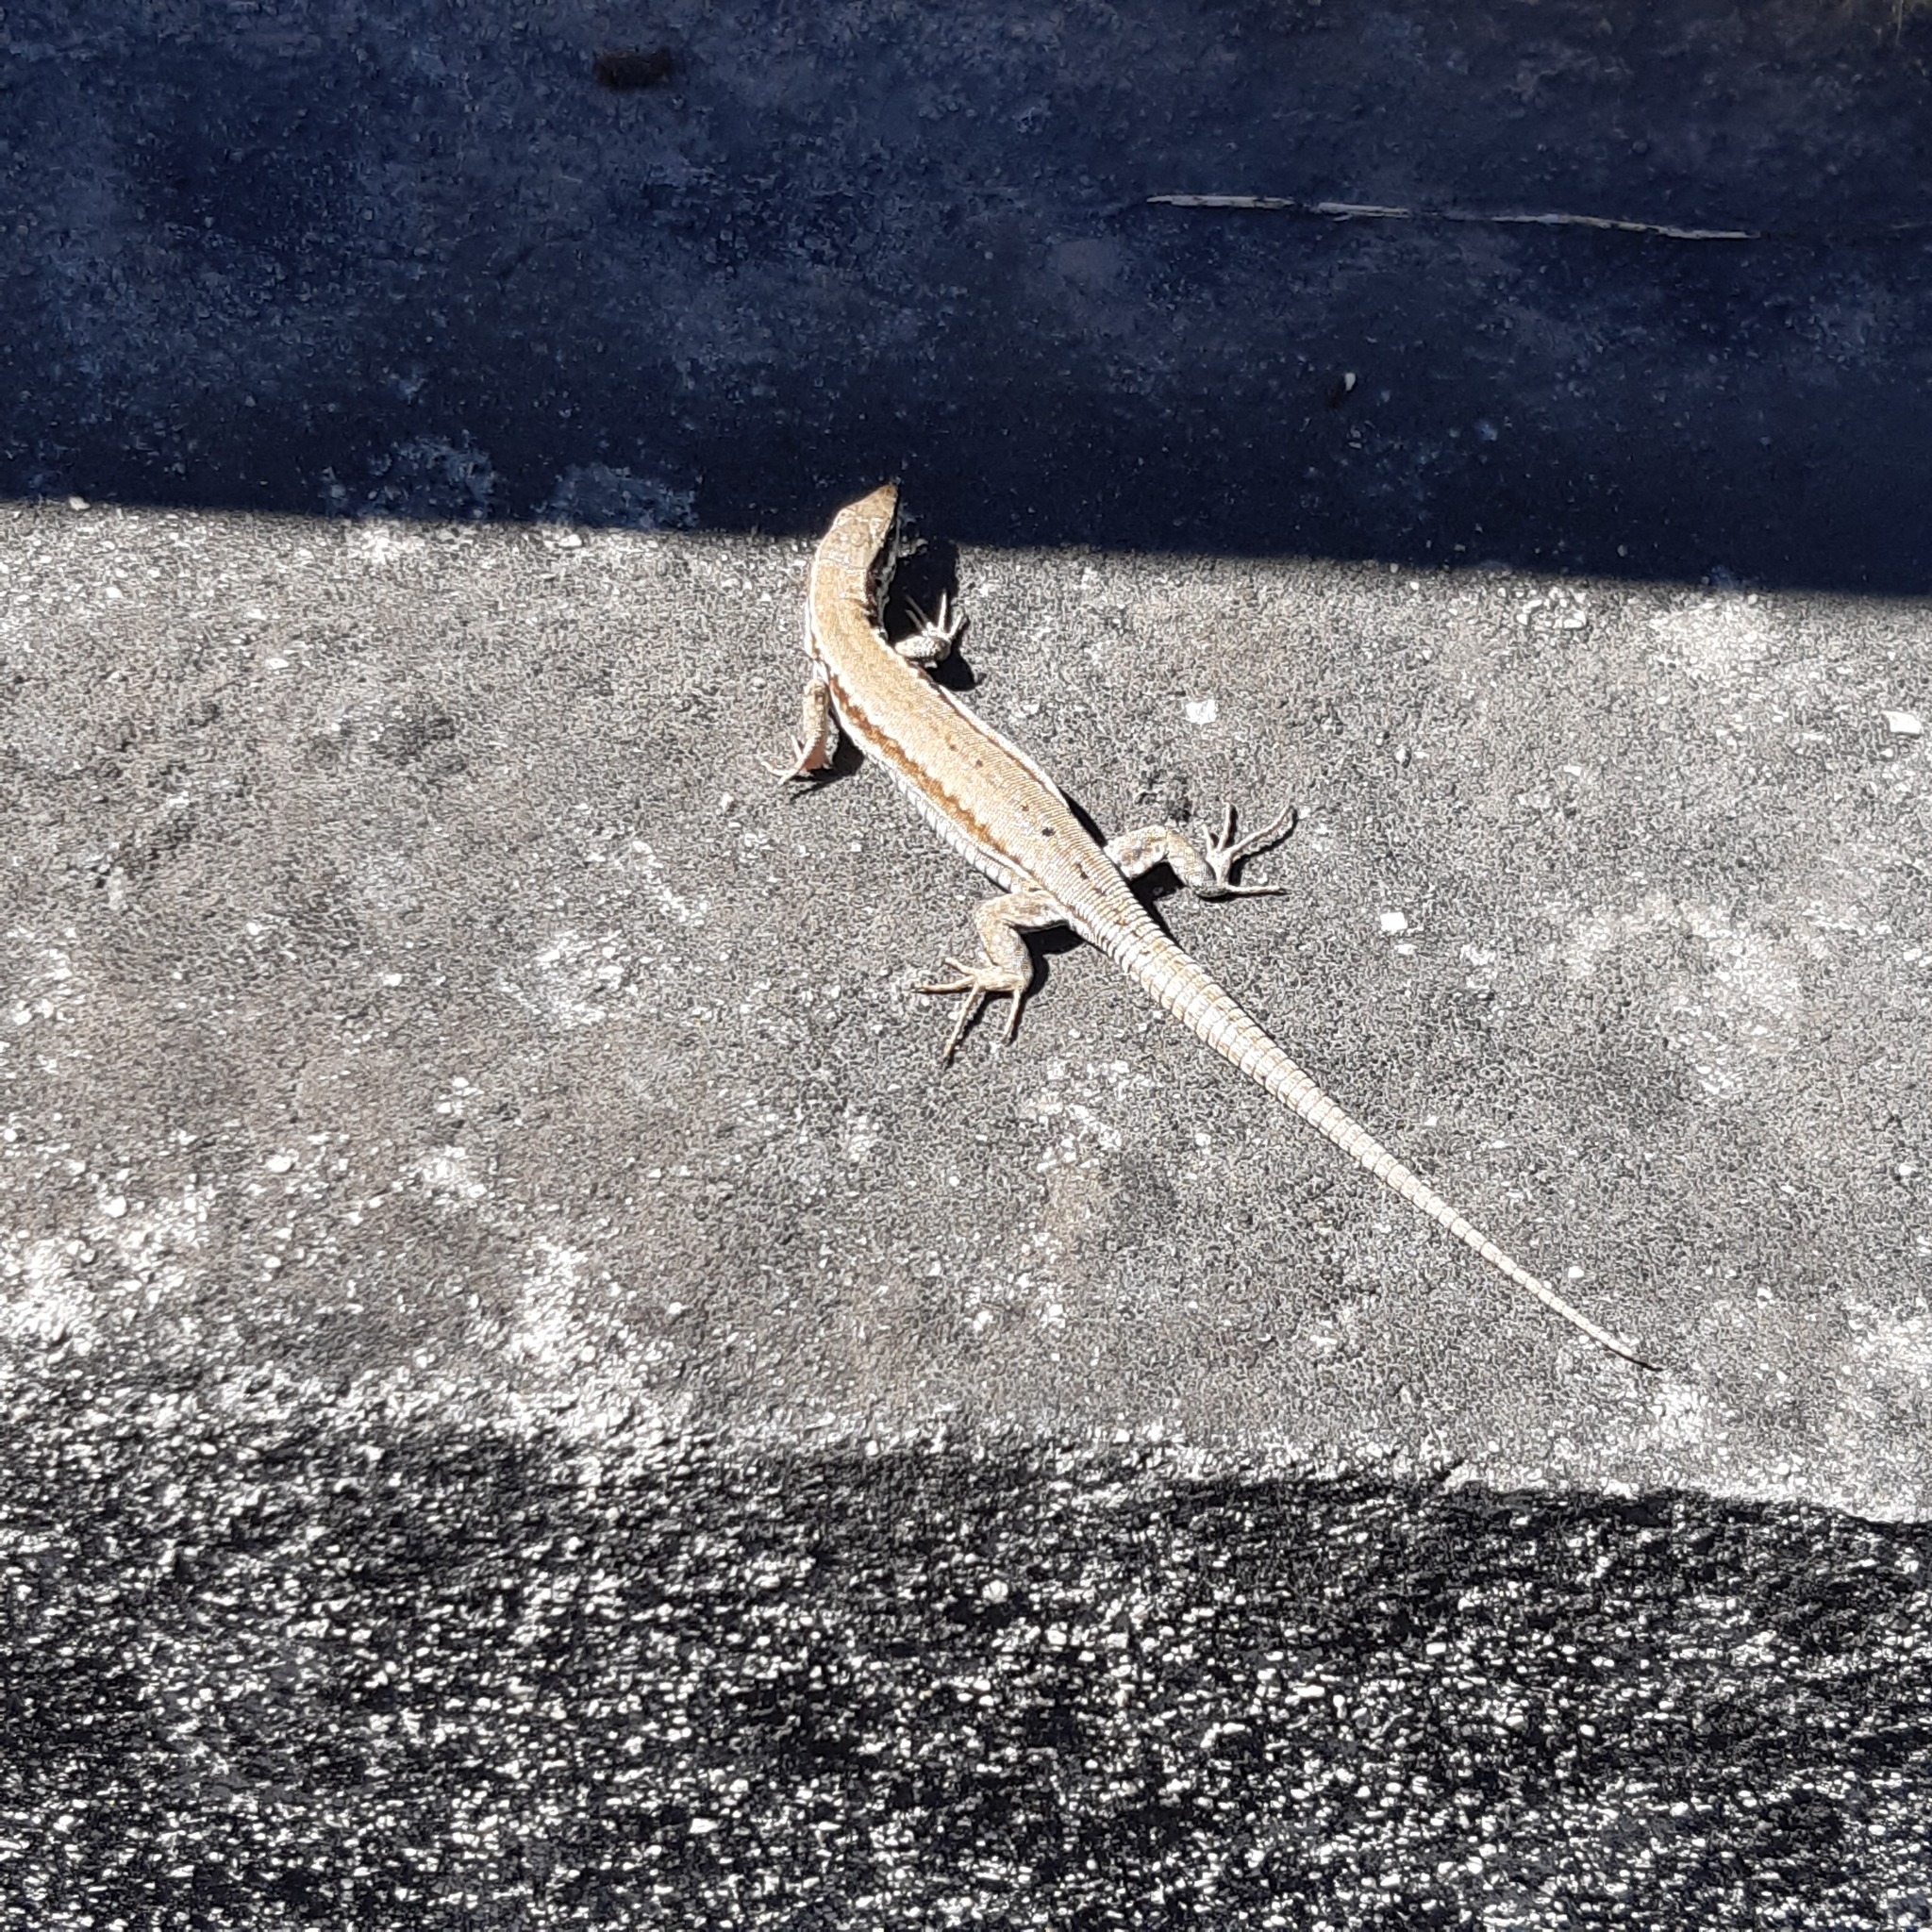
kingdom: Animalia
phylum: Chordata
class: Squamata
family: Lacertidae
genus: Podarcis
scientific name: Podarcis muralis
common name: Common wall lizard
